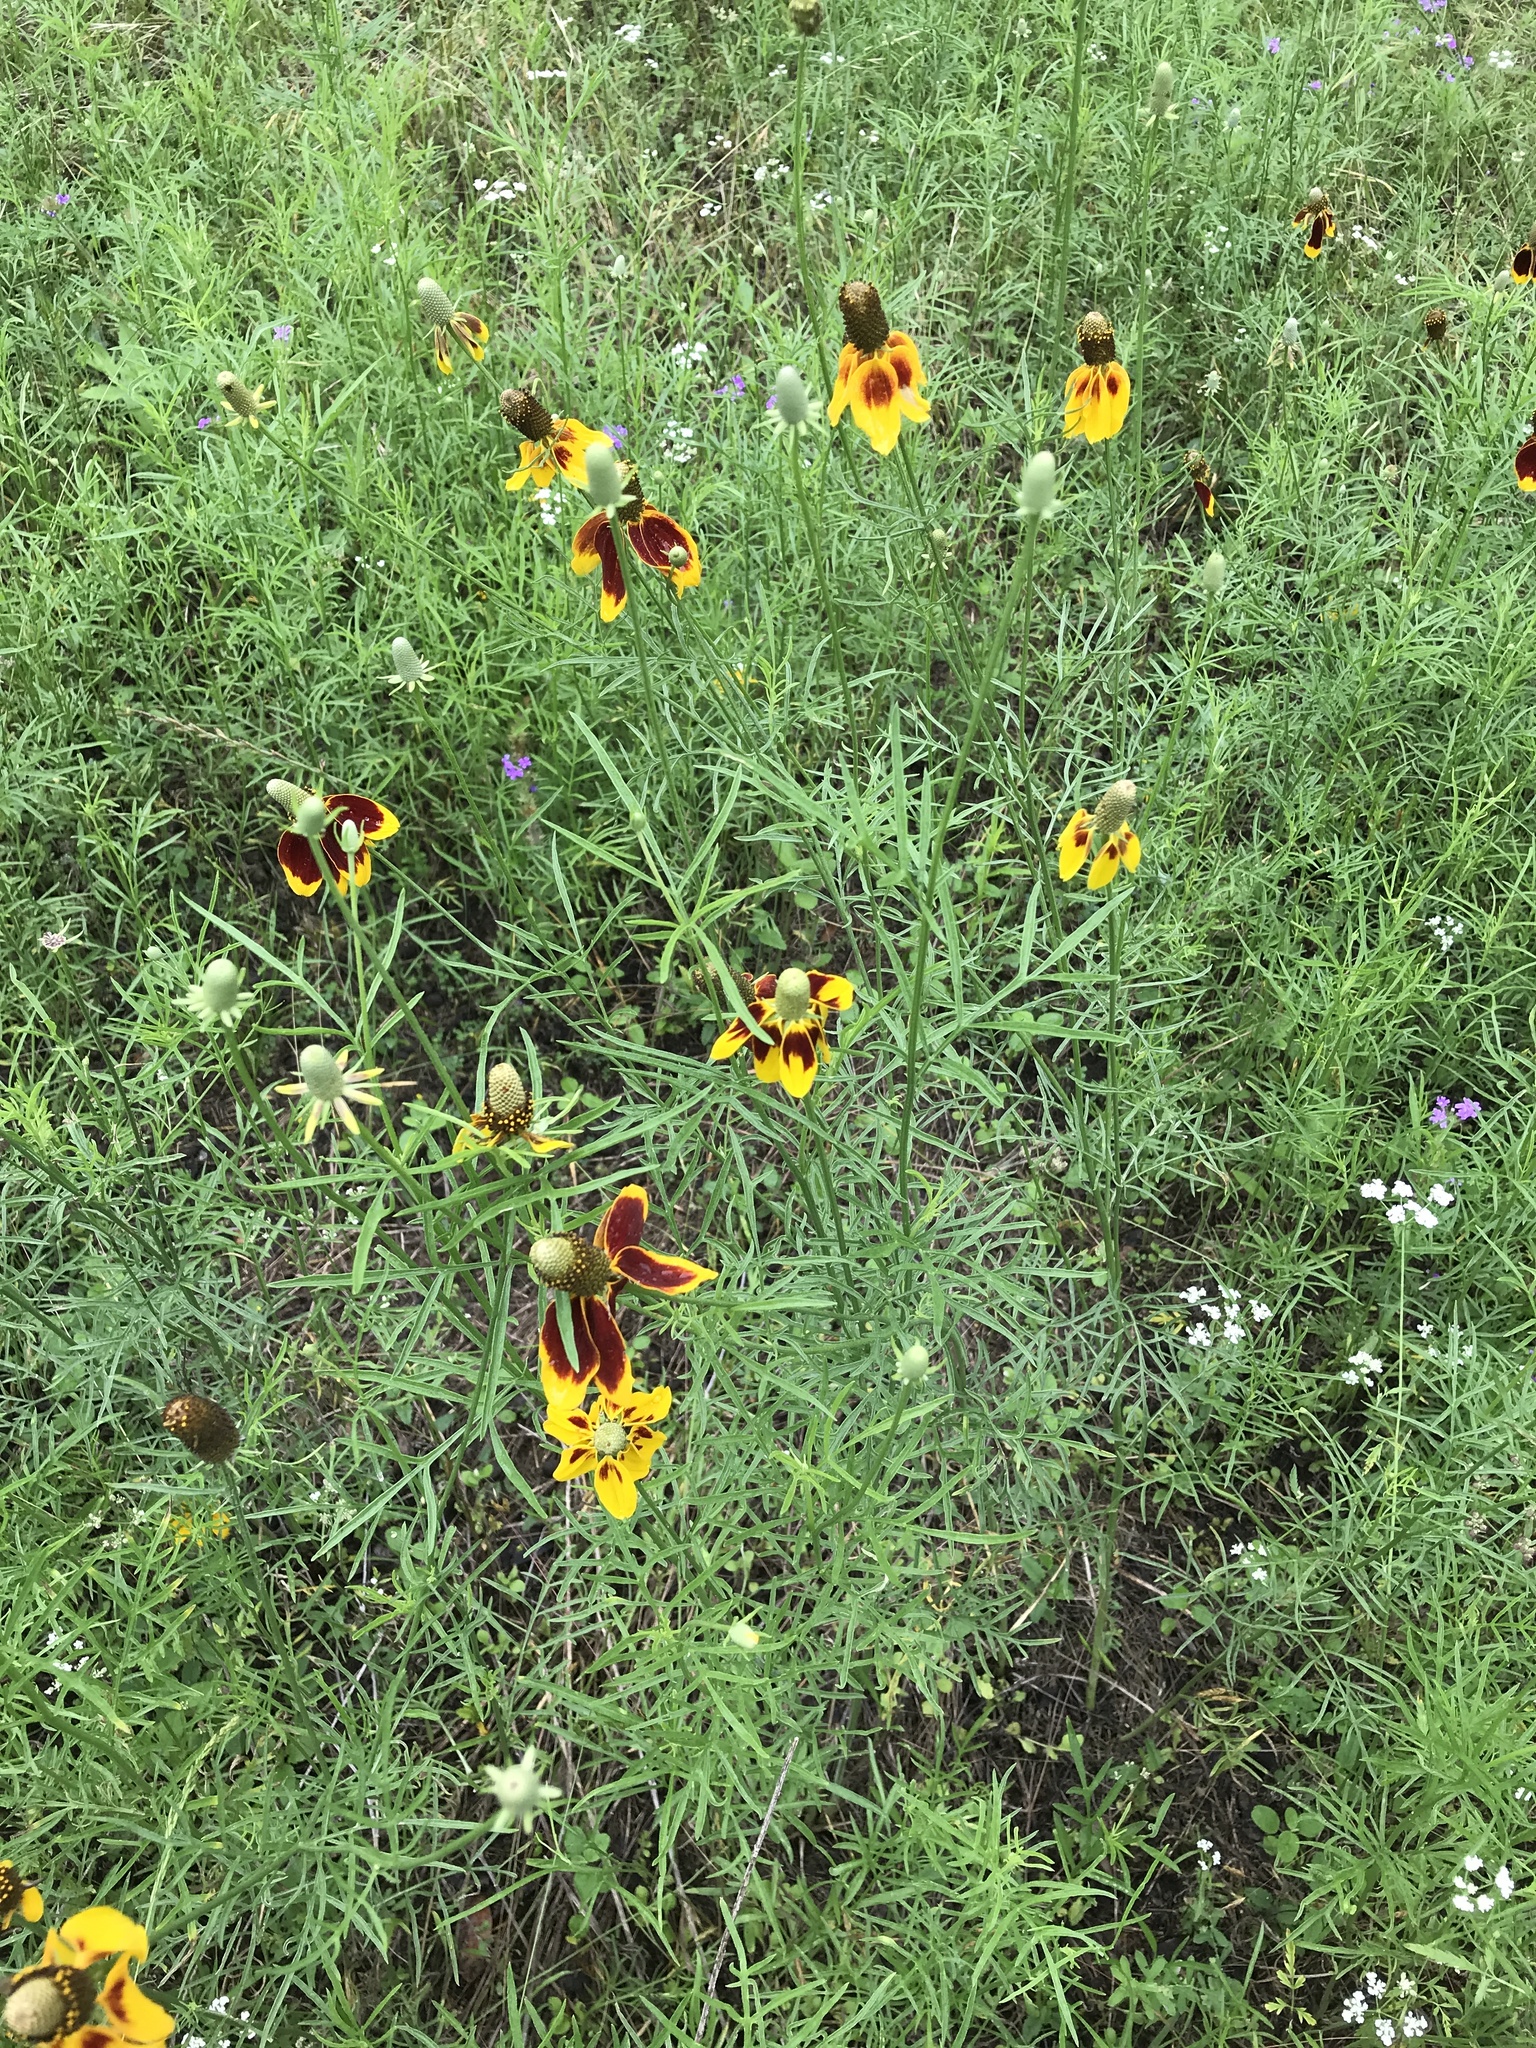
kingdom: Plantae
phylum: Tracheophyta
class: Magnoliopsida
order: Asterales
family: Asteraceae
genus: Ratibida
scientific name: Ratibida columnifera
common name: Prairie coneflower
